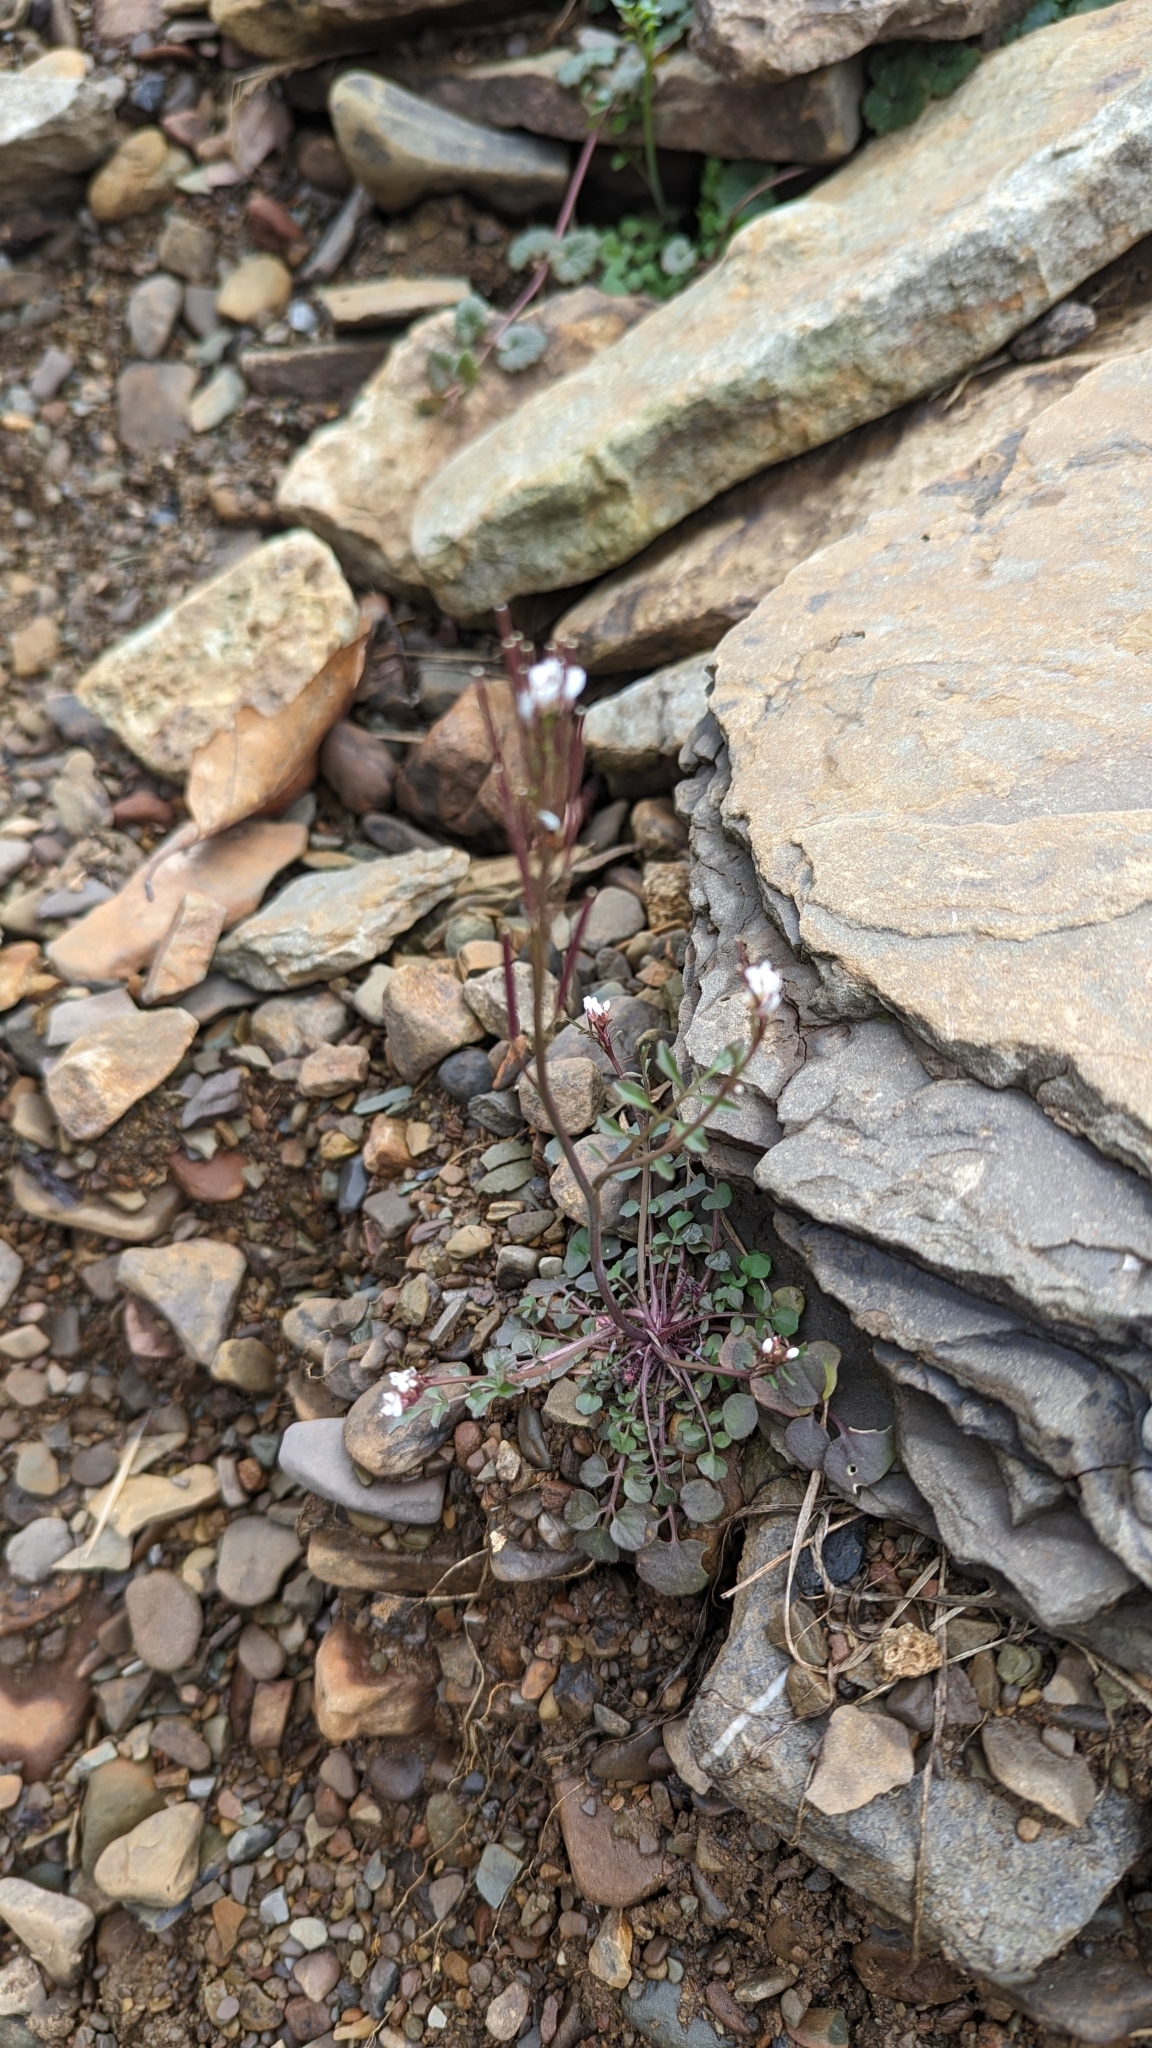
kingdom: Plantae
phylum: Tracheophyta
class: Magnoliopsida
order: Brassicales
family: Brassicaceae
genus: Cardamine
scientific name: Cardamine hirsuta
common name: Hairy bittercress
